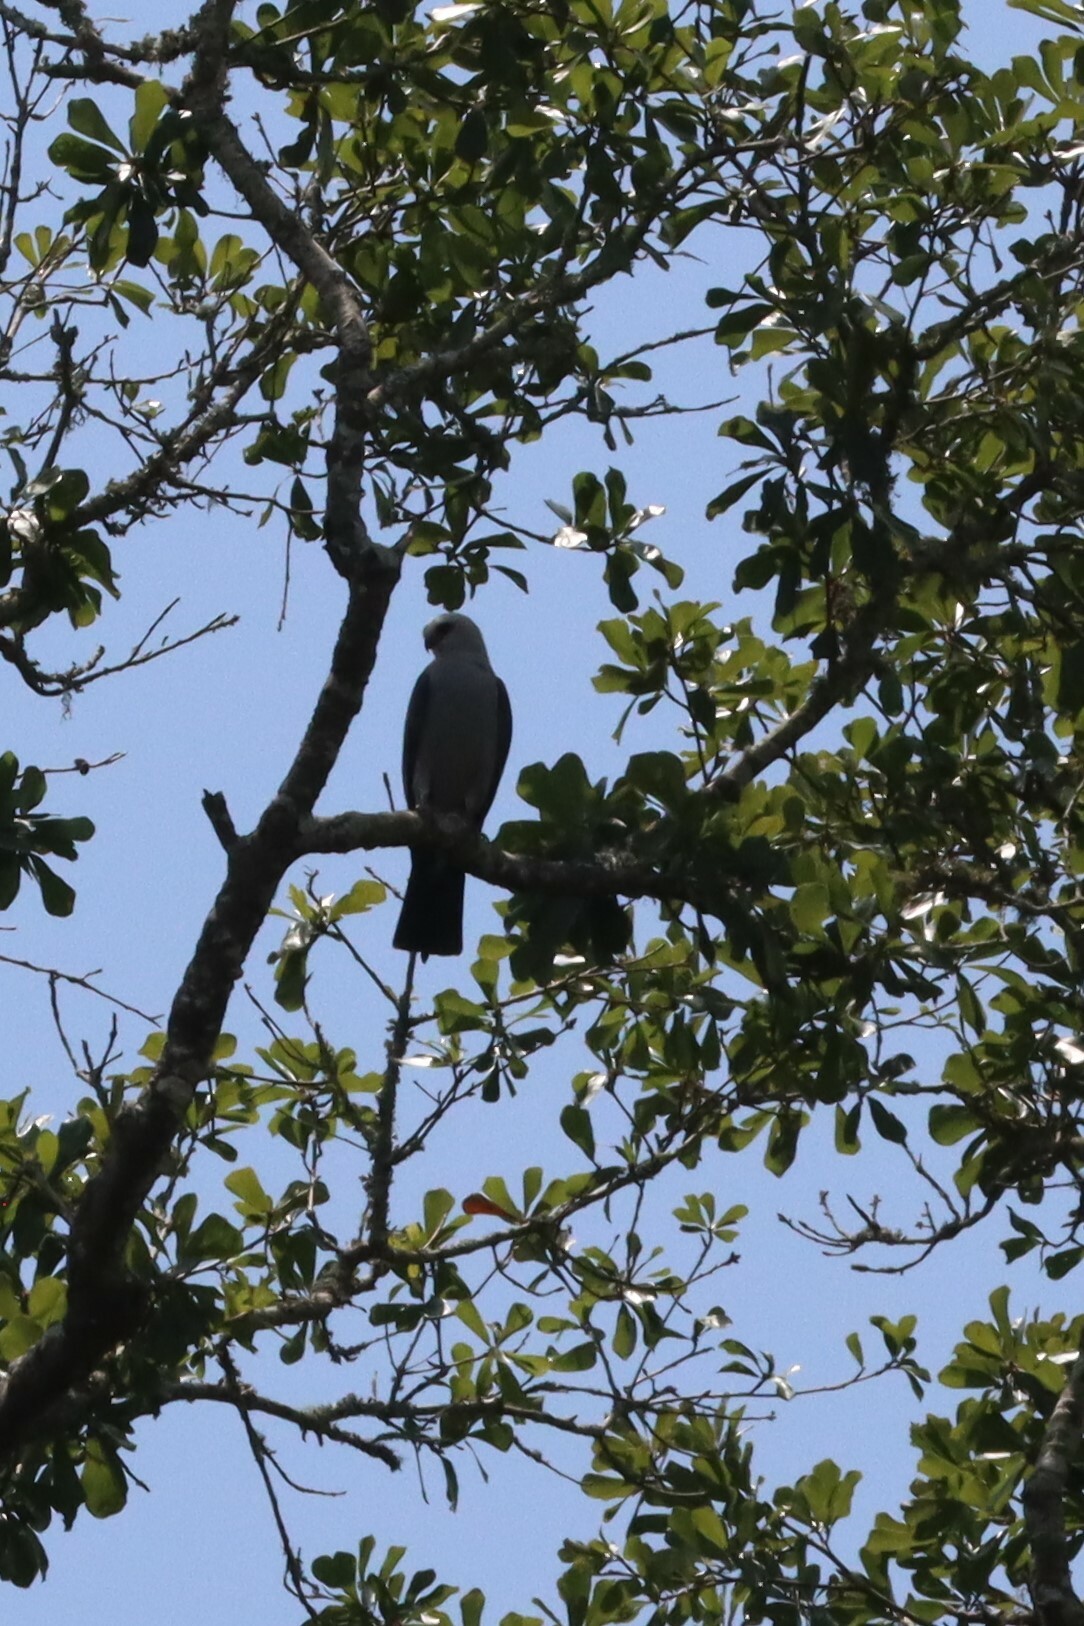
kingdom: Animalia
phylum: Chordata
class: Aves
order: Accipitriformes
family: Accipitridae
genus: Ictinia
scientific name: Ictinia mississippiensis
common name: Mississippi kite
